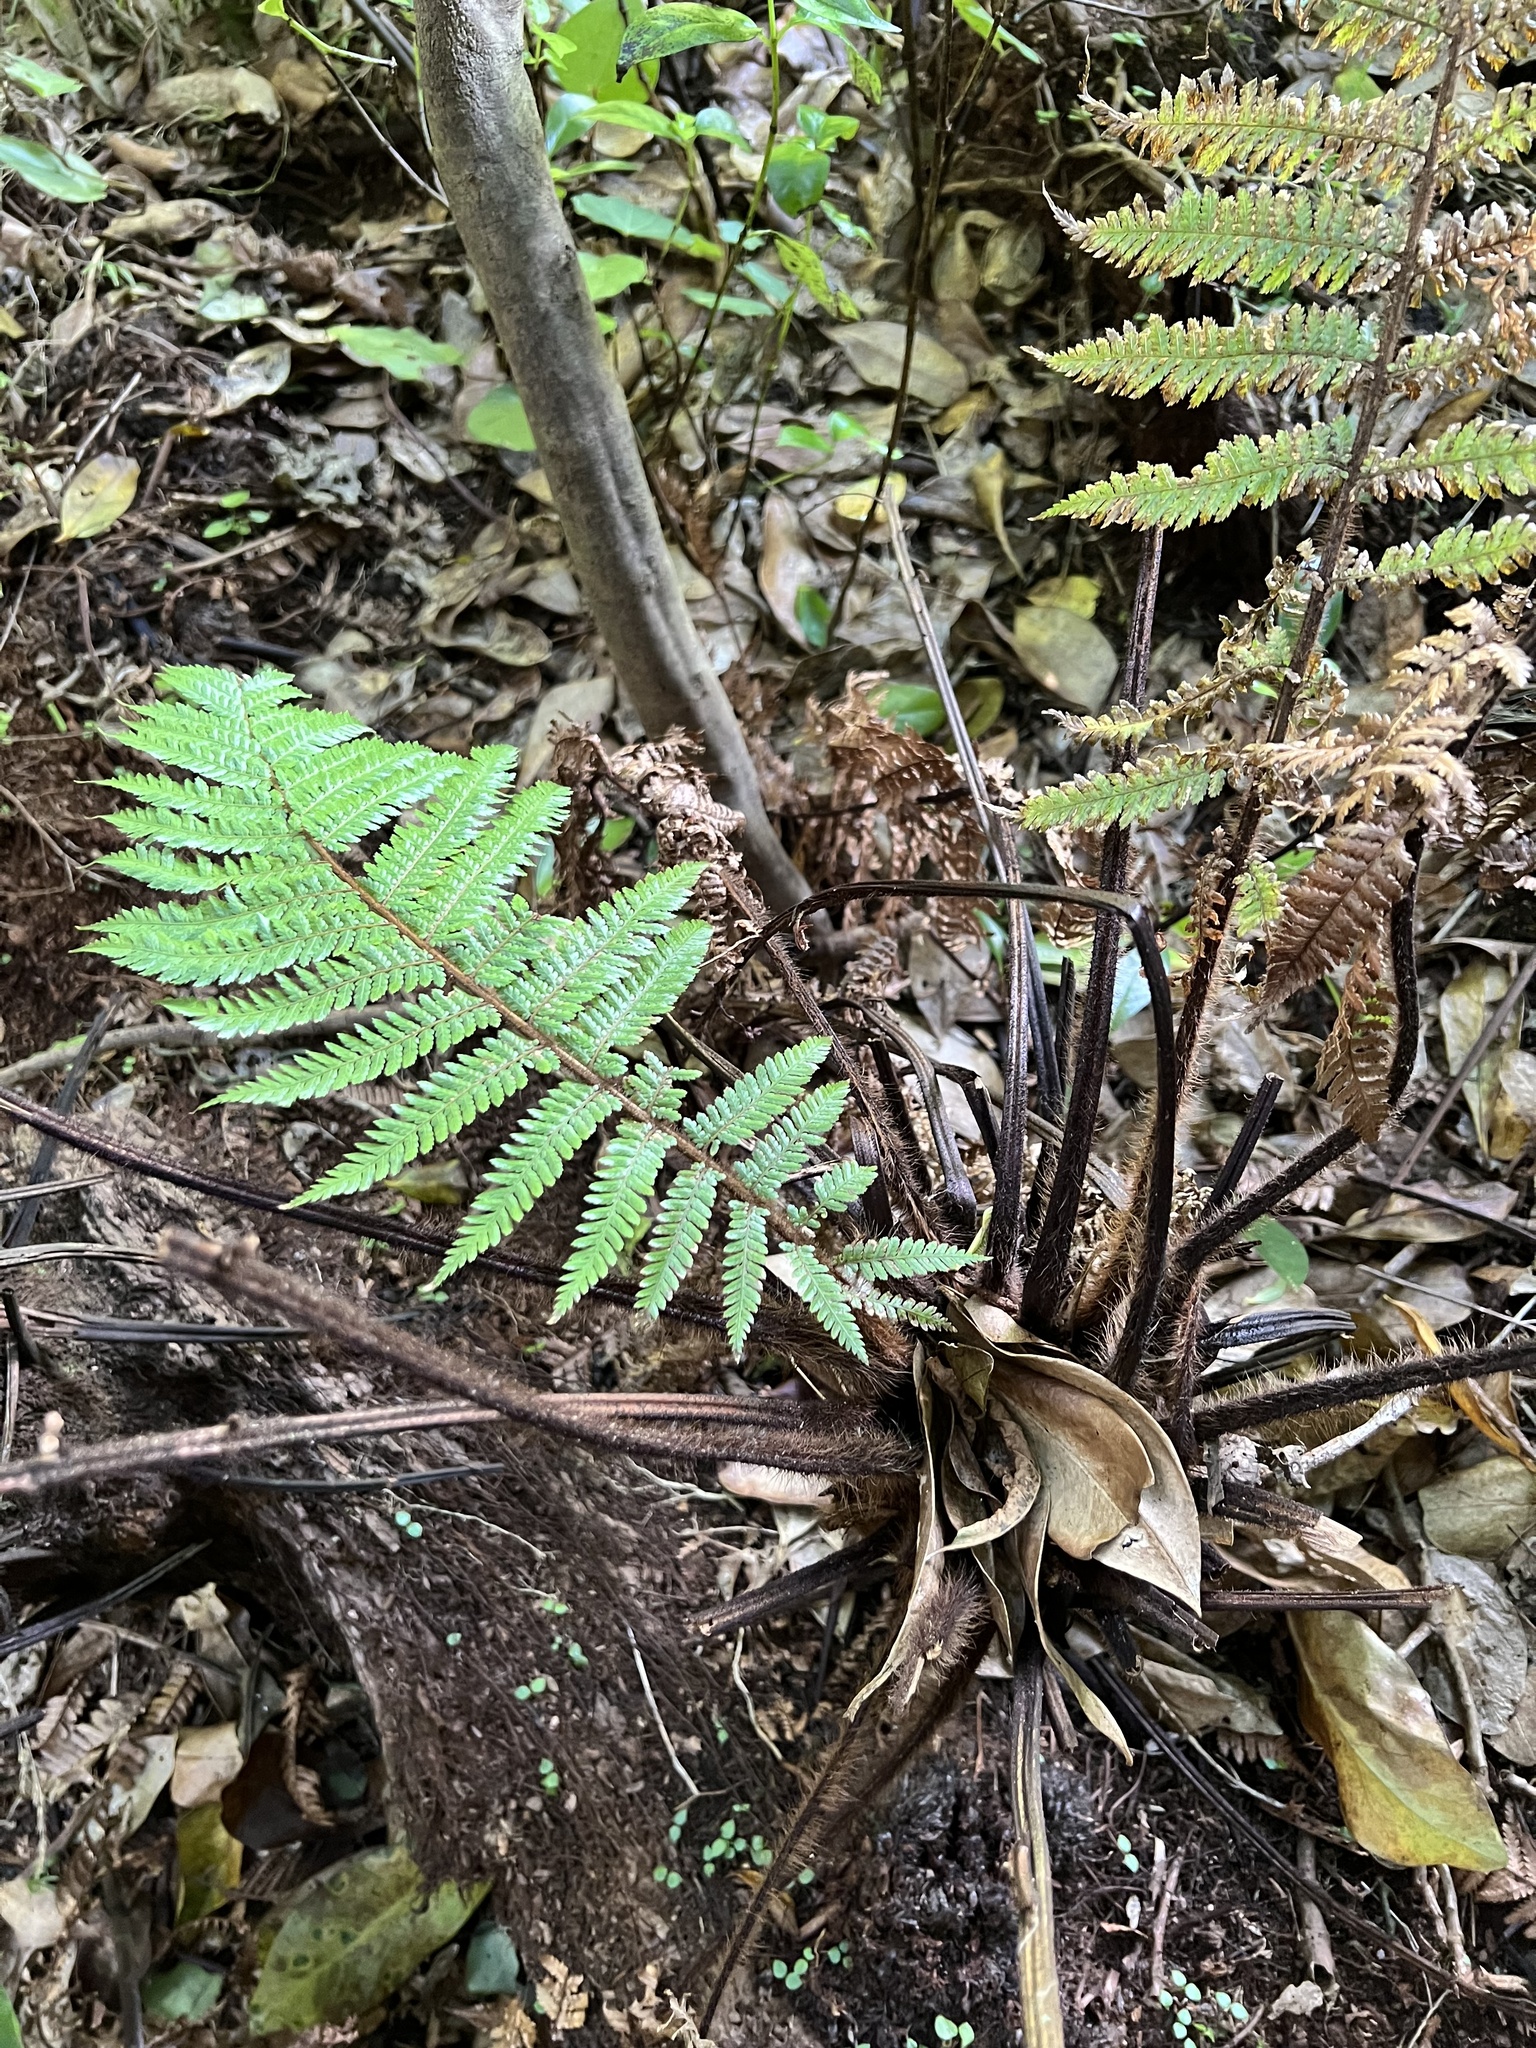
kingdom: Plantae
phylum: Tracheophyta
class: Polypodiopsida
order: Cyatheales
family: Dicksoniaceae
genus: Dicksonia
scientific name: Dicksonia squarrosa
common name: Hard treefern
